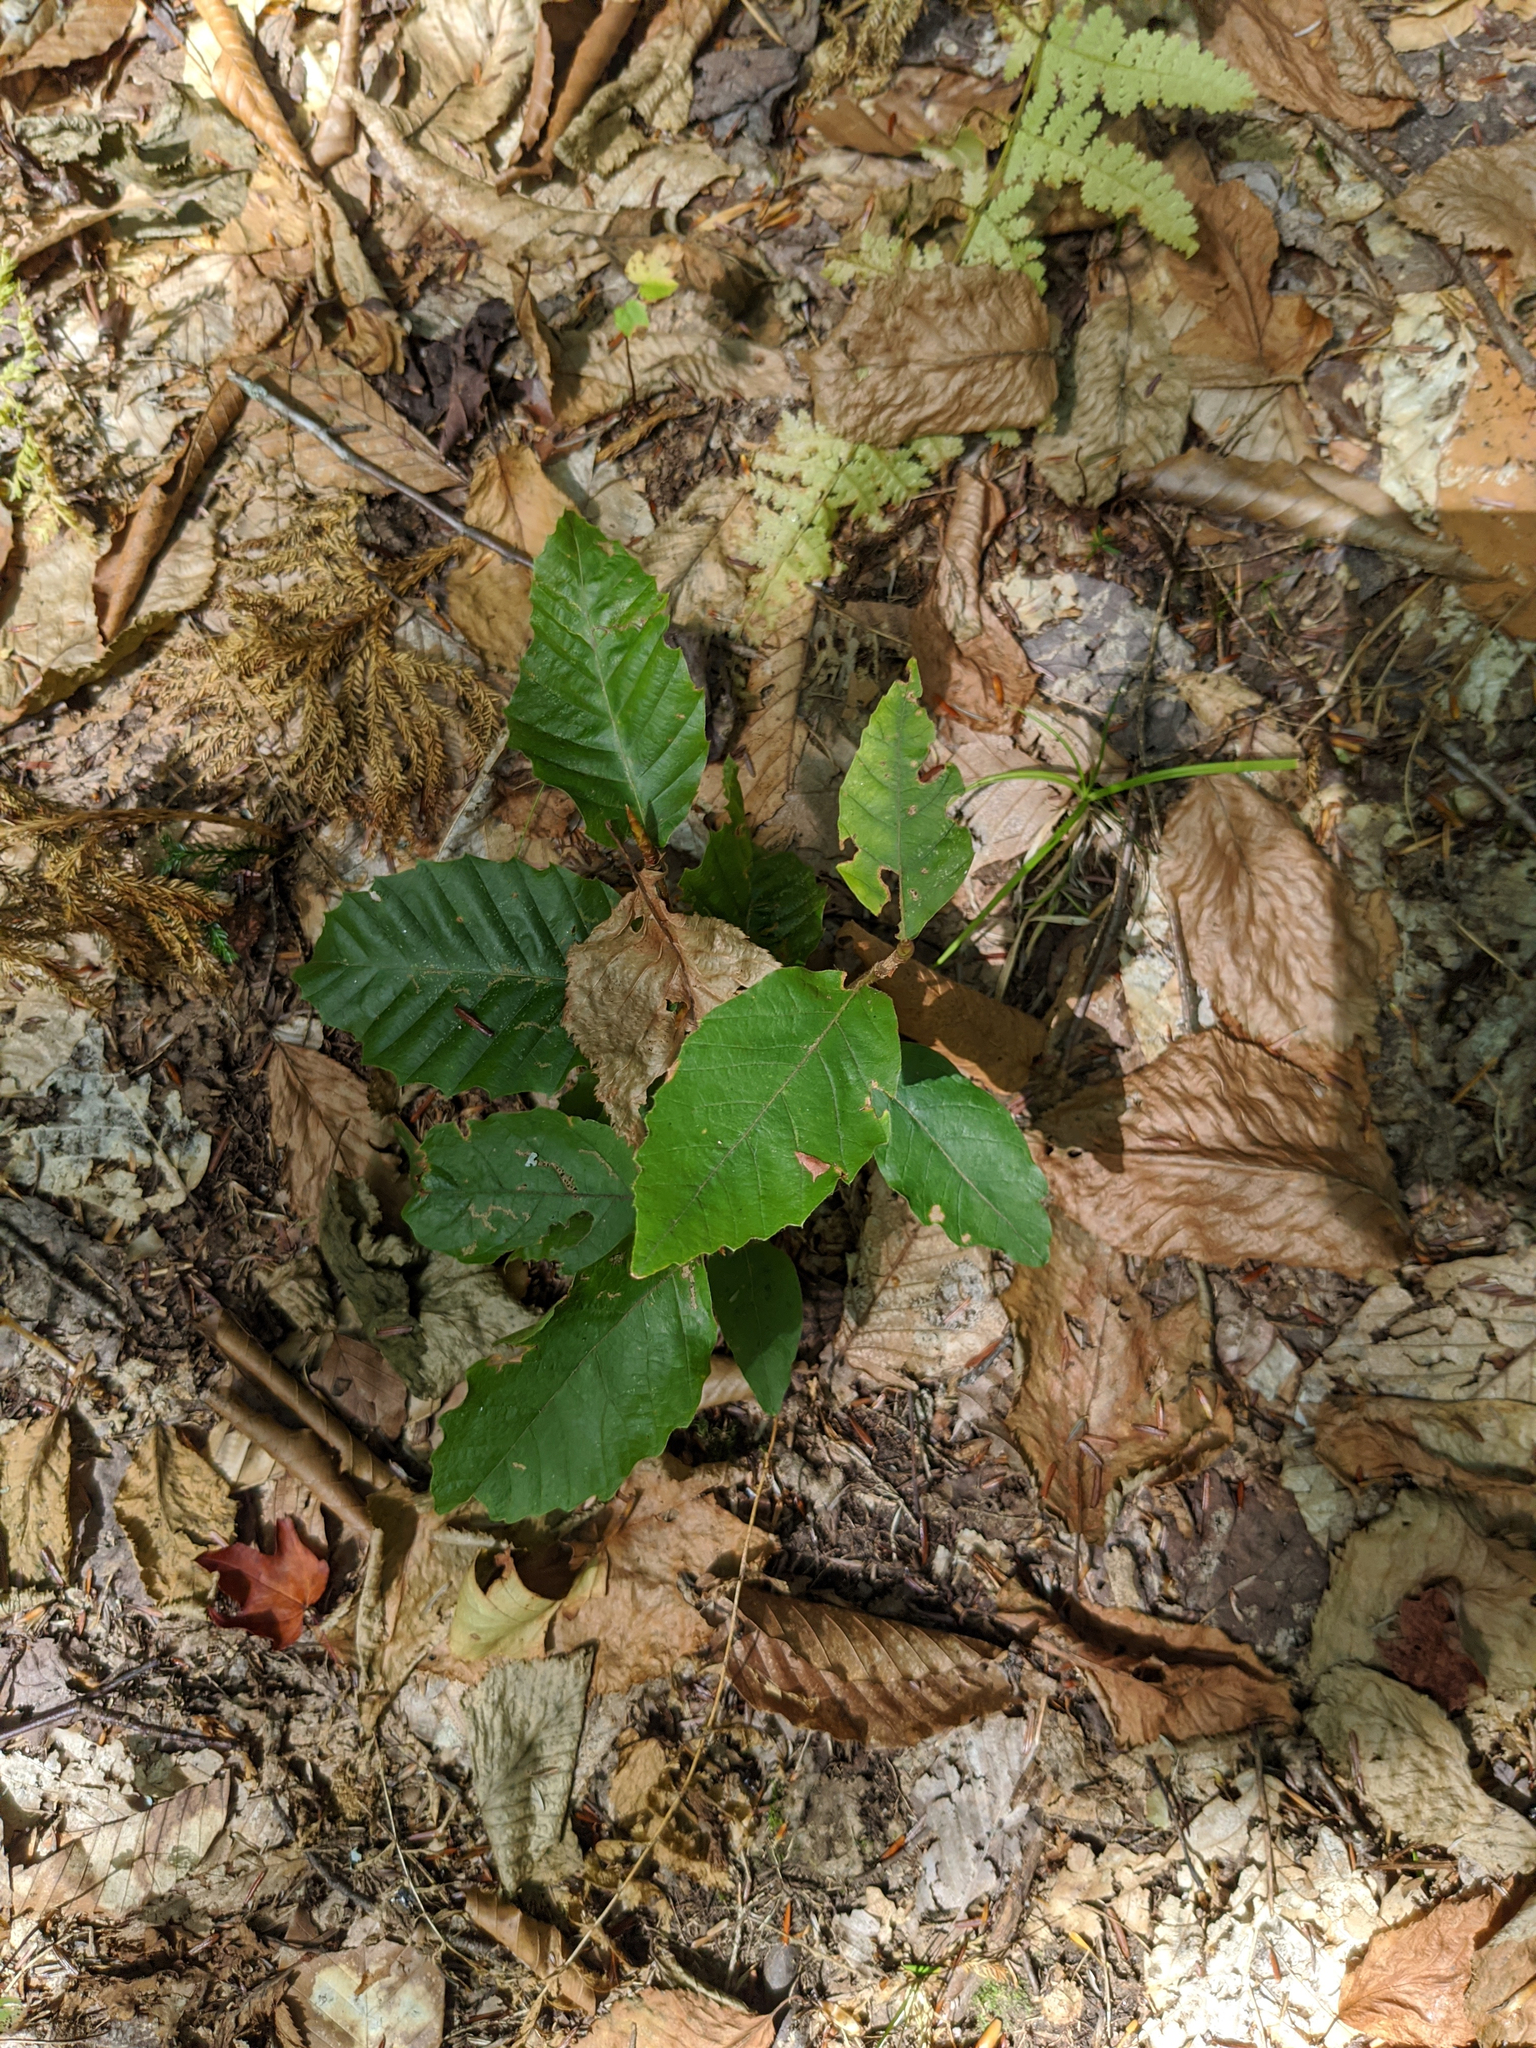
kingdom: Plantae
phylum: Tracheophyta
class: Magnoliopsida
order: Fagales
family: Fagaceae
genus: Fagus
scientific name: Fagus grandifolia
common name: American beech
